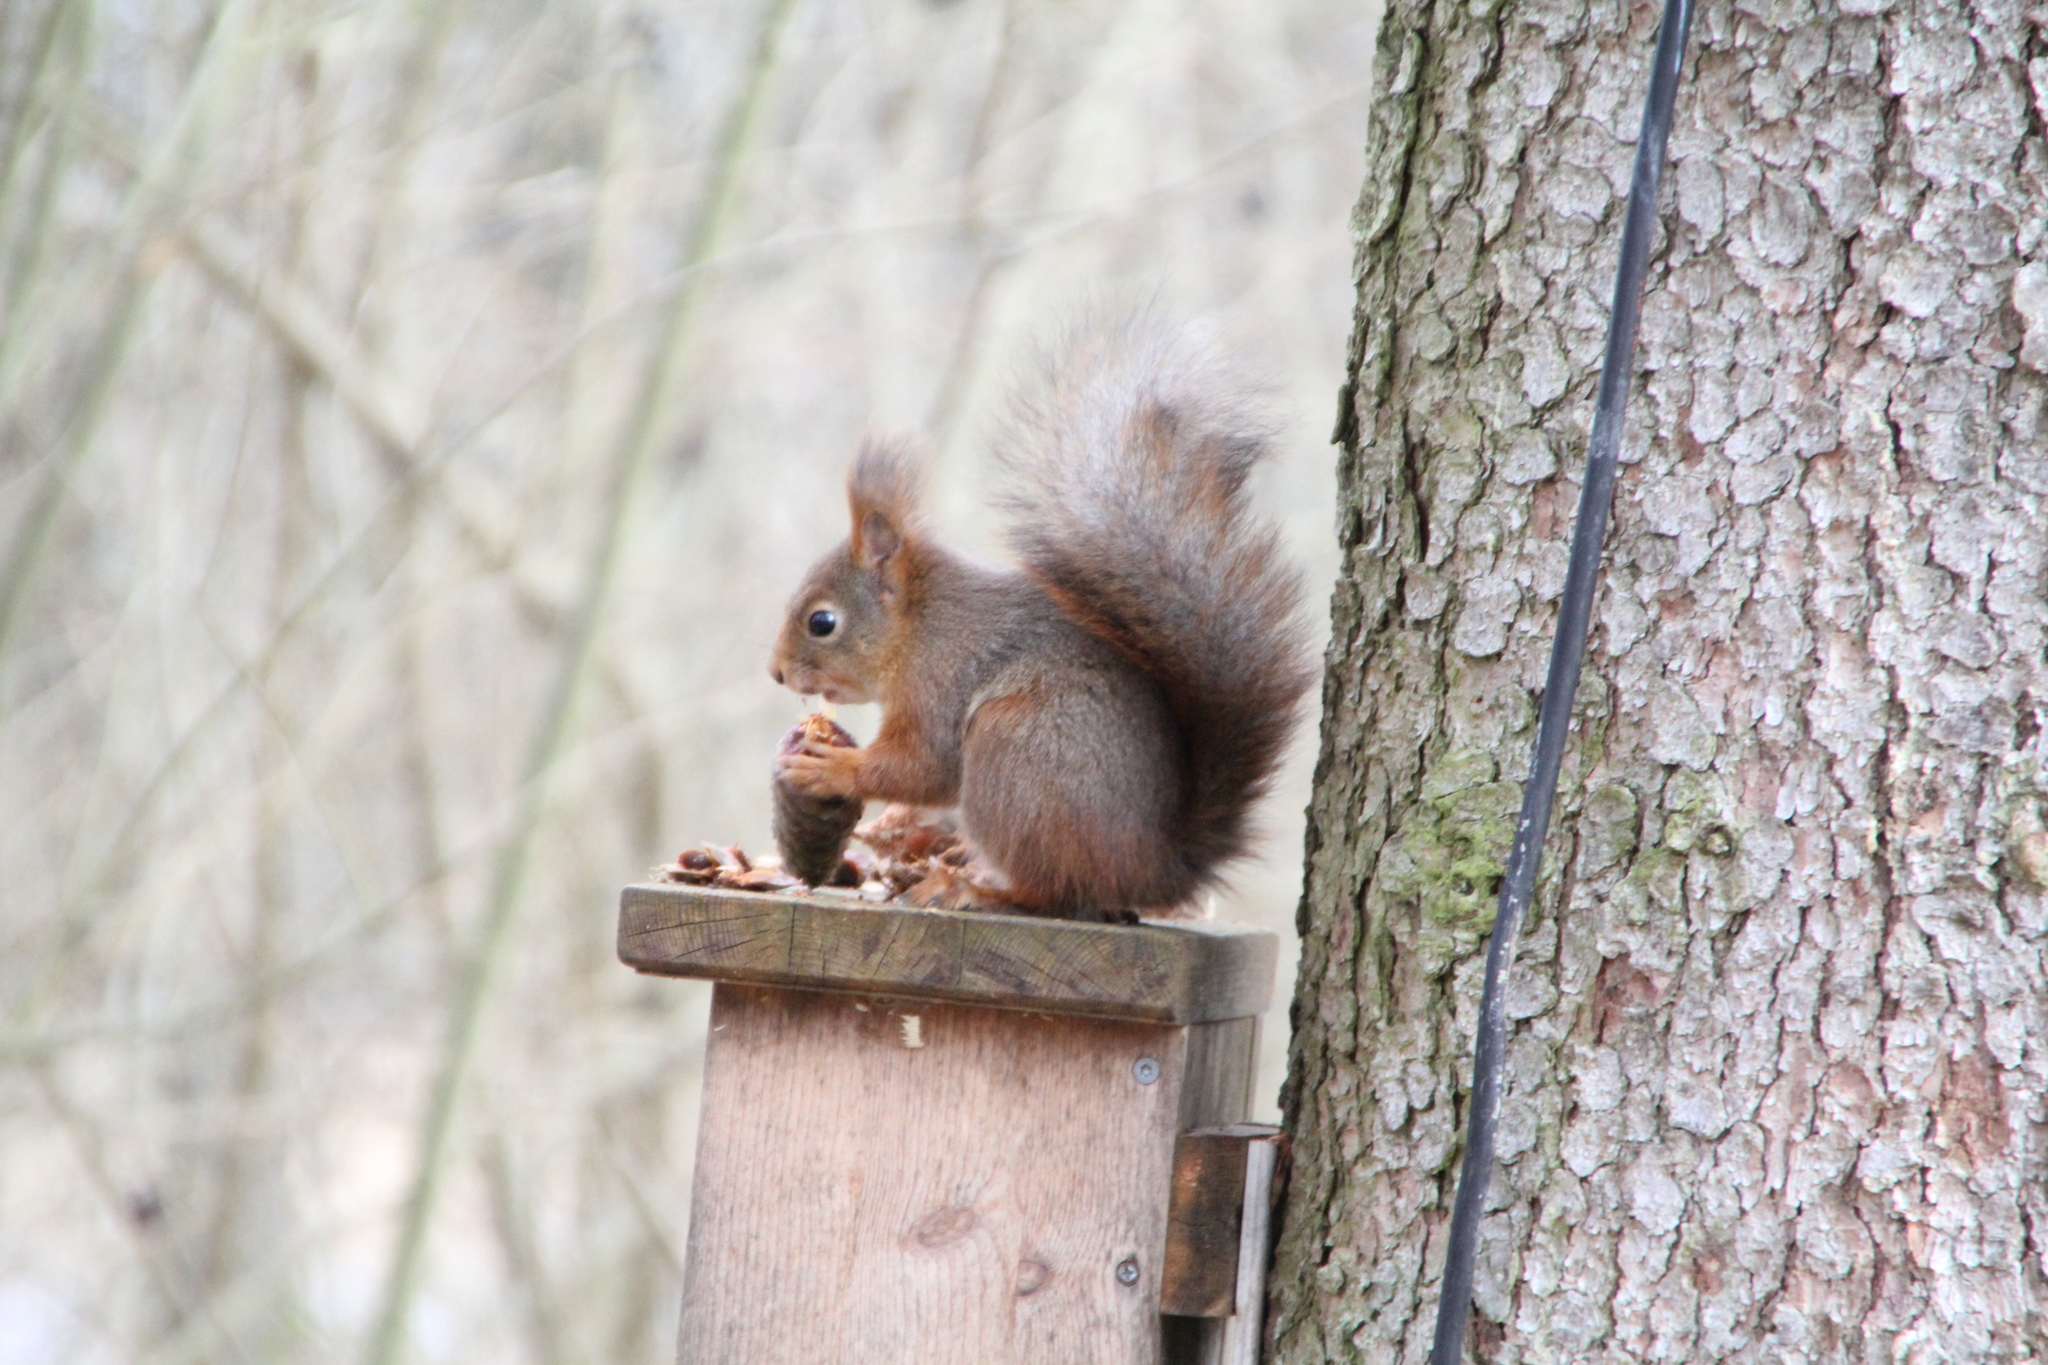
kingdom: Animalia
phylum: Chordata
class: Mammalia
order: Rodentia
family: Sciuridae
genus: Sciurus
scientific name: Sciurus vulgaris
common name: Eurasian red squirrel
